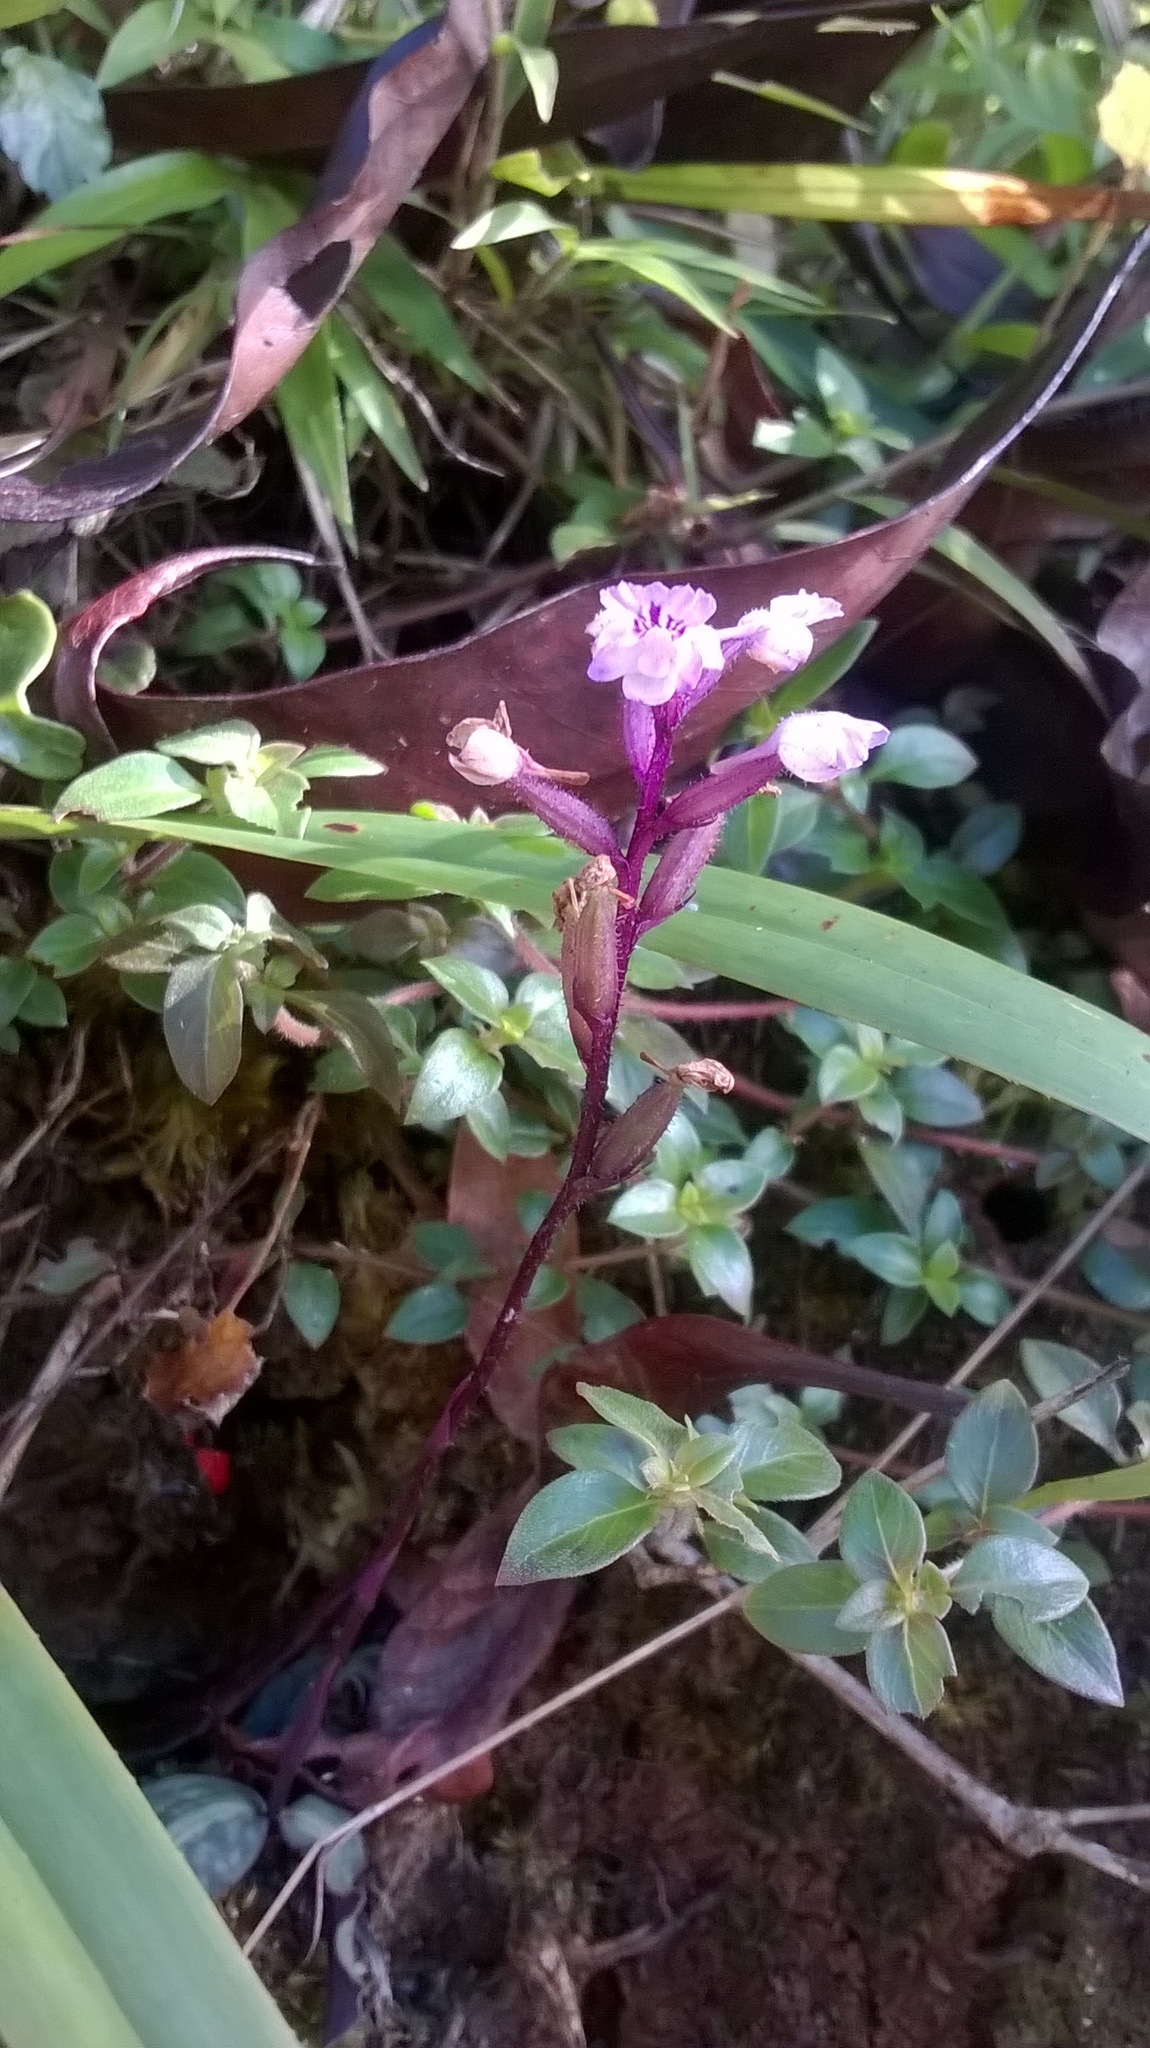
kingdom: Plantae
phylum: Tracheophyta
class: Liliopsida
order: Asparagales
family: Orchidaceae
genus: Cynorkis
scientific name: Cynorkis ridleyi
